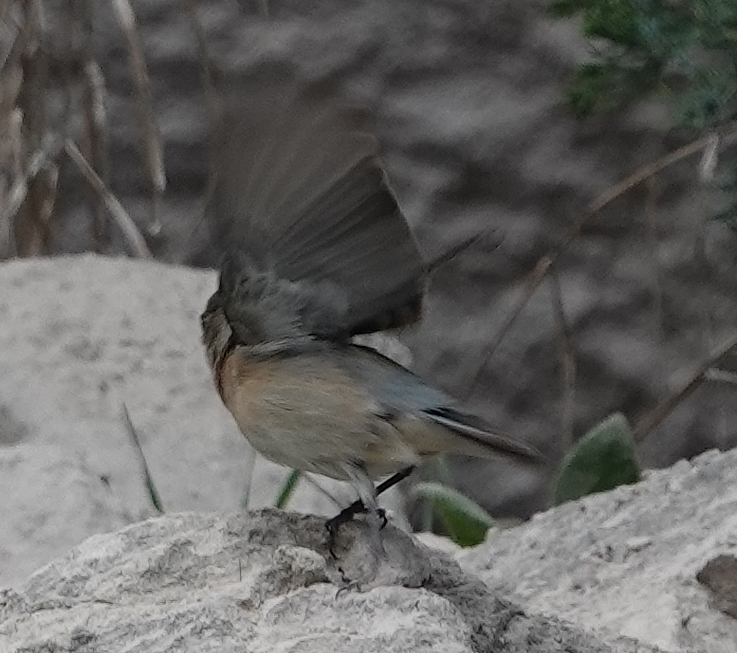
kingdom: Animalia
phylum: Chordata
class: Aves
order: Passeriformes
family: Cardinalidae
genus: Passerina
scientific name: Passerina amoena
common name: Lazuli bunting
